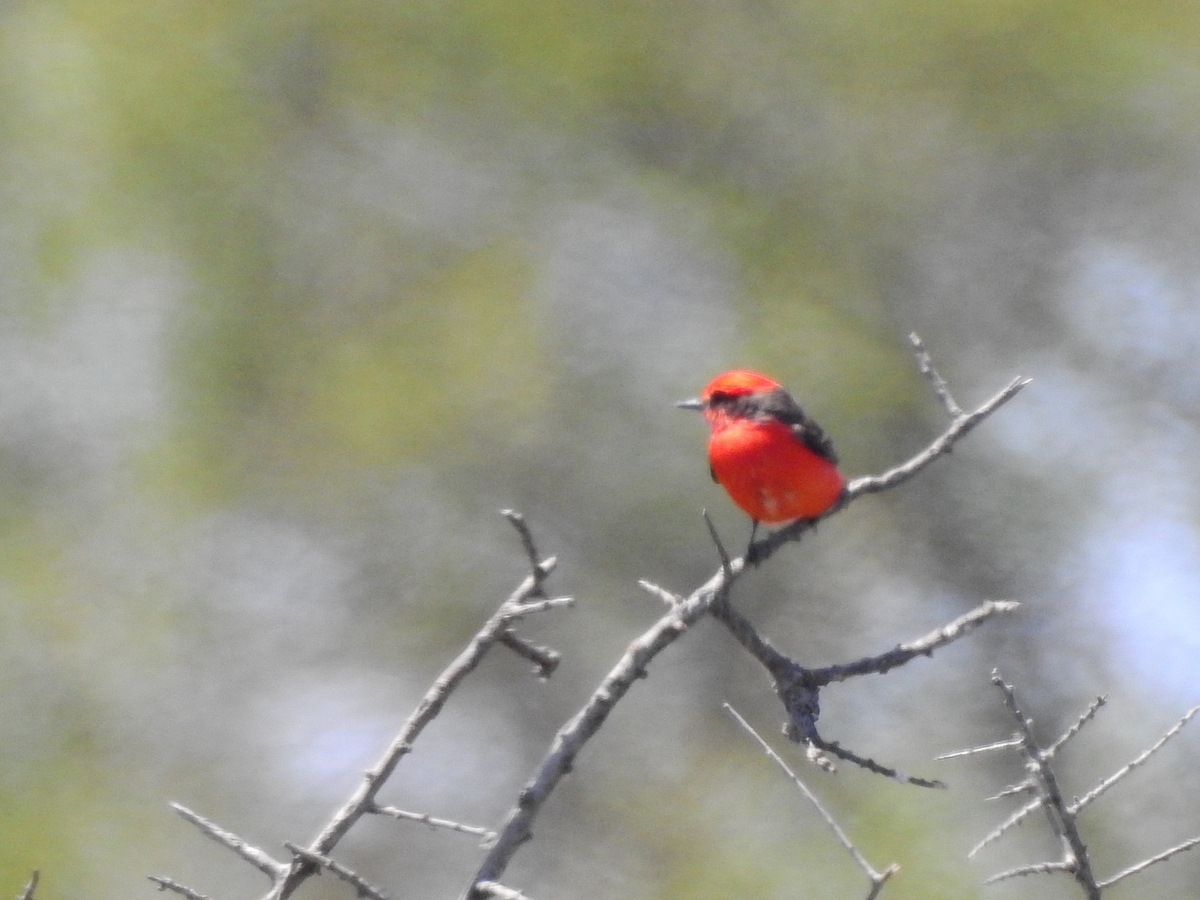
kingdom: Animalia
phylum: Chordata
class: Aves
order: Passeriformes
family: Tyrannidae
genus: Pyrocephalus
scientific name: Pyrocephalus rubinus
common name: Vermilion flycatcher
